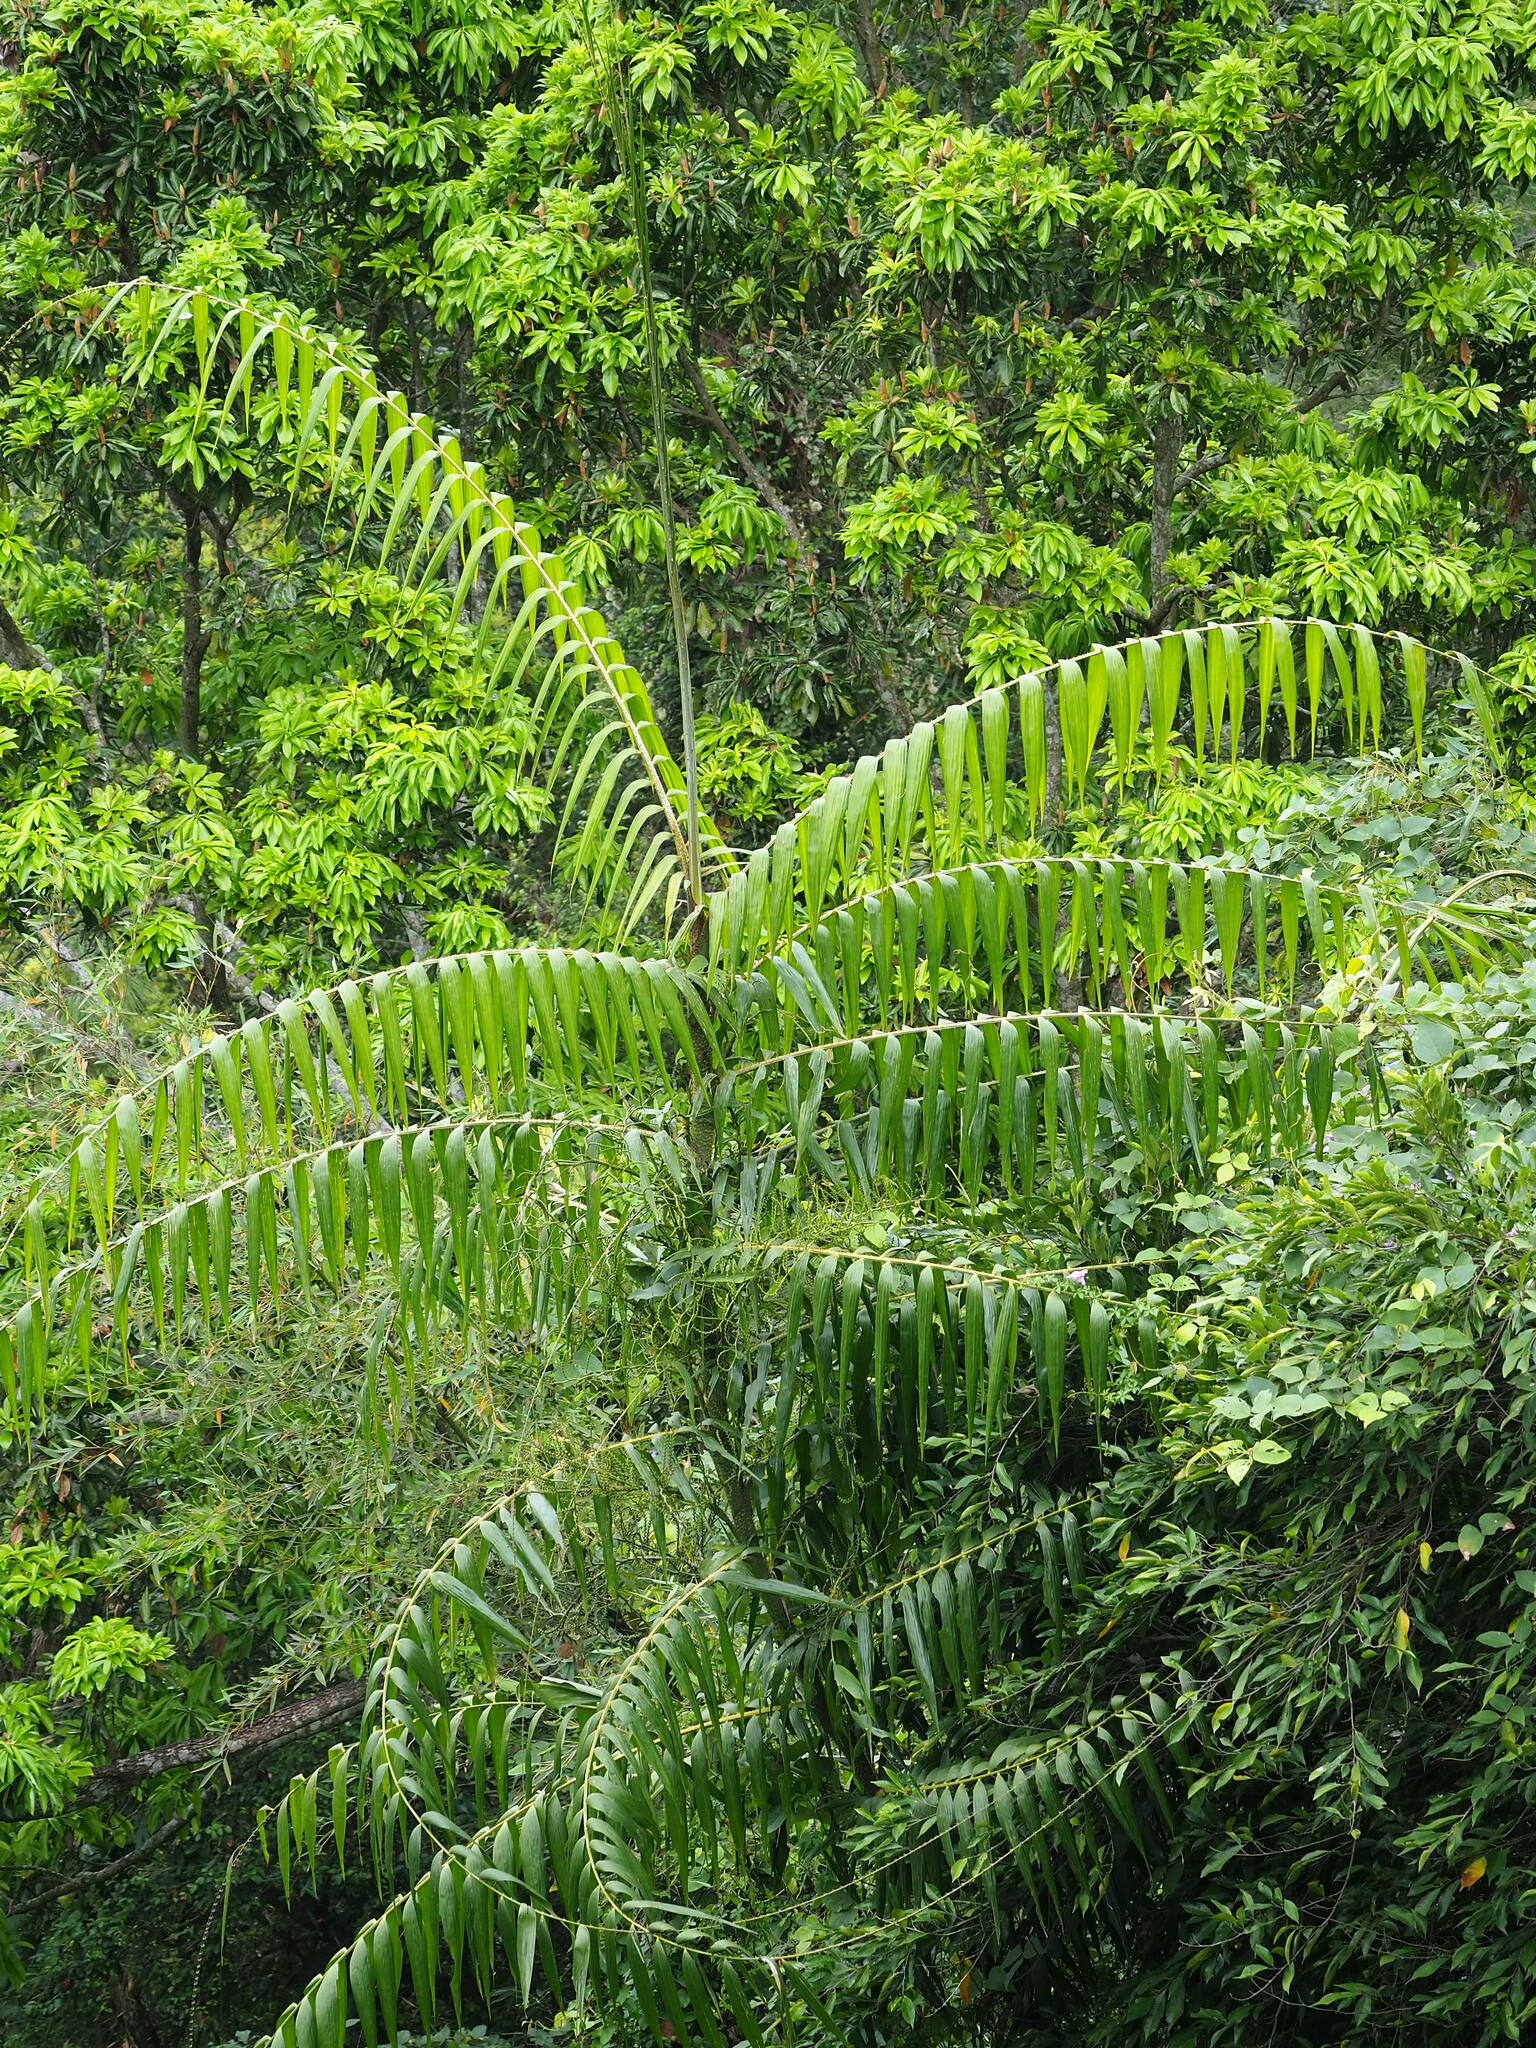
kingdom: Plantae
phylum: Tracheophyta
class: Liliopsida
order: Arecales
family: Arecaceae
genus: Calamus
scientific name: Calamus formosanus
